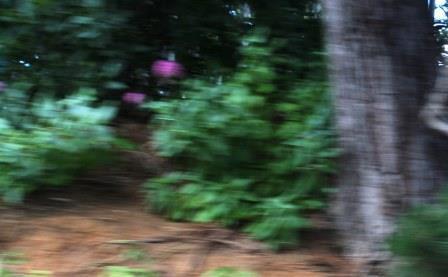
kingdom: Plantae
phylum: Tracheophyta
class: Magnoliopsida
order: Dipsacales
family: Caprifoliaceae
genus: Centranthus
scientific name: Centranthus ruber
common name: Red valerian
